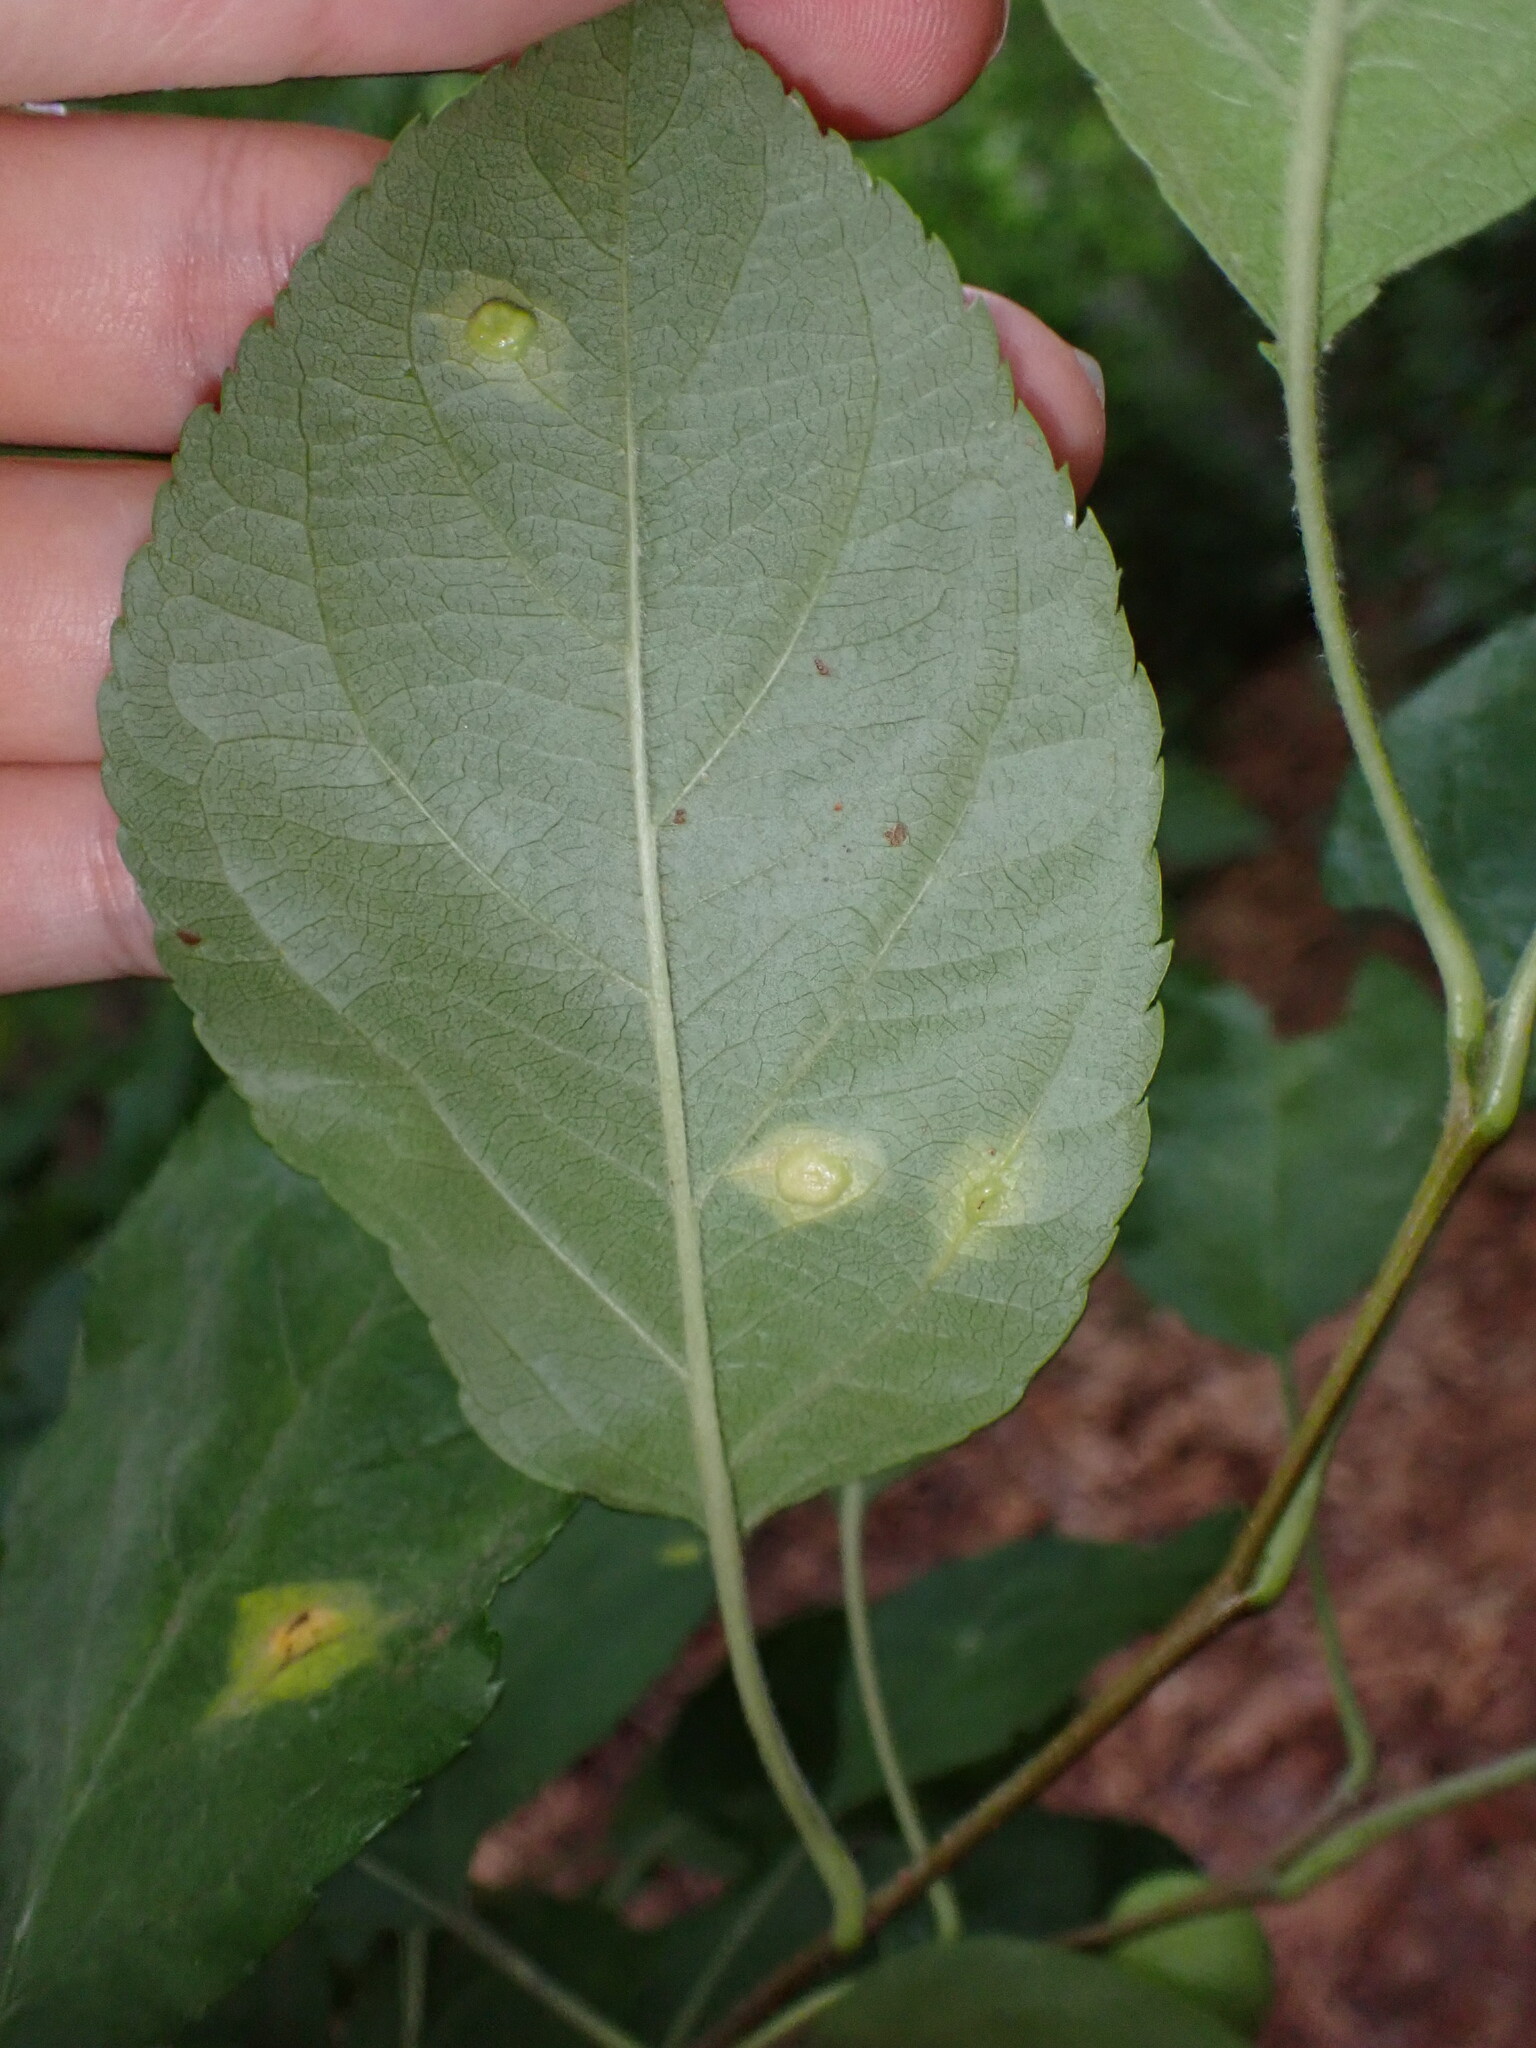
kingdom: Fungi
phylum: Basidiomycota
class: Pucciniomycetes
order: Pucciniales
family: Gymnosporangiaceae
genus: Gymnosporangium
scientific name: Gymnosporangium globosum
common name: Juniper-hawthorn rust
